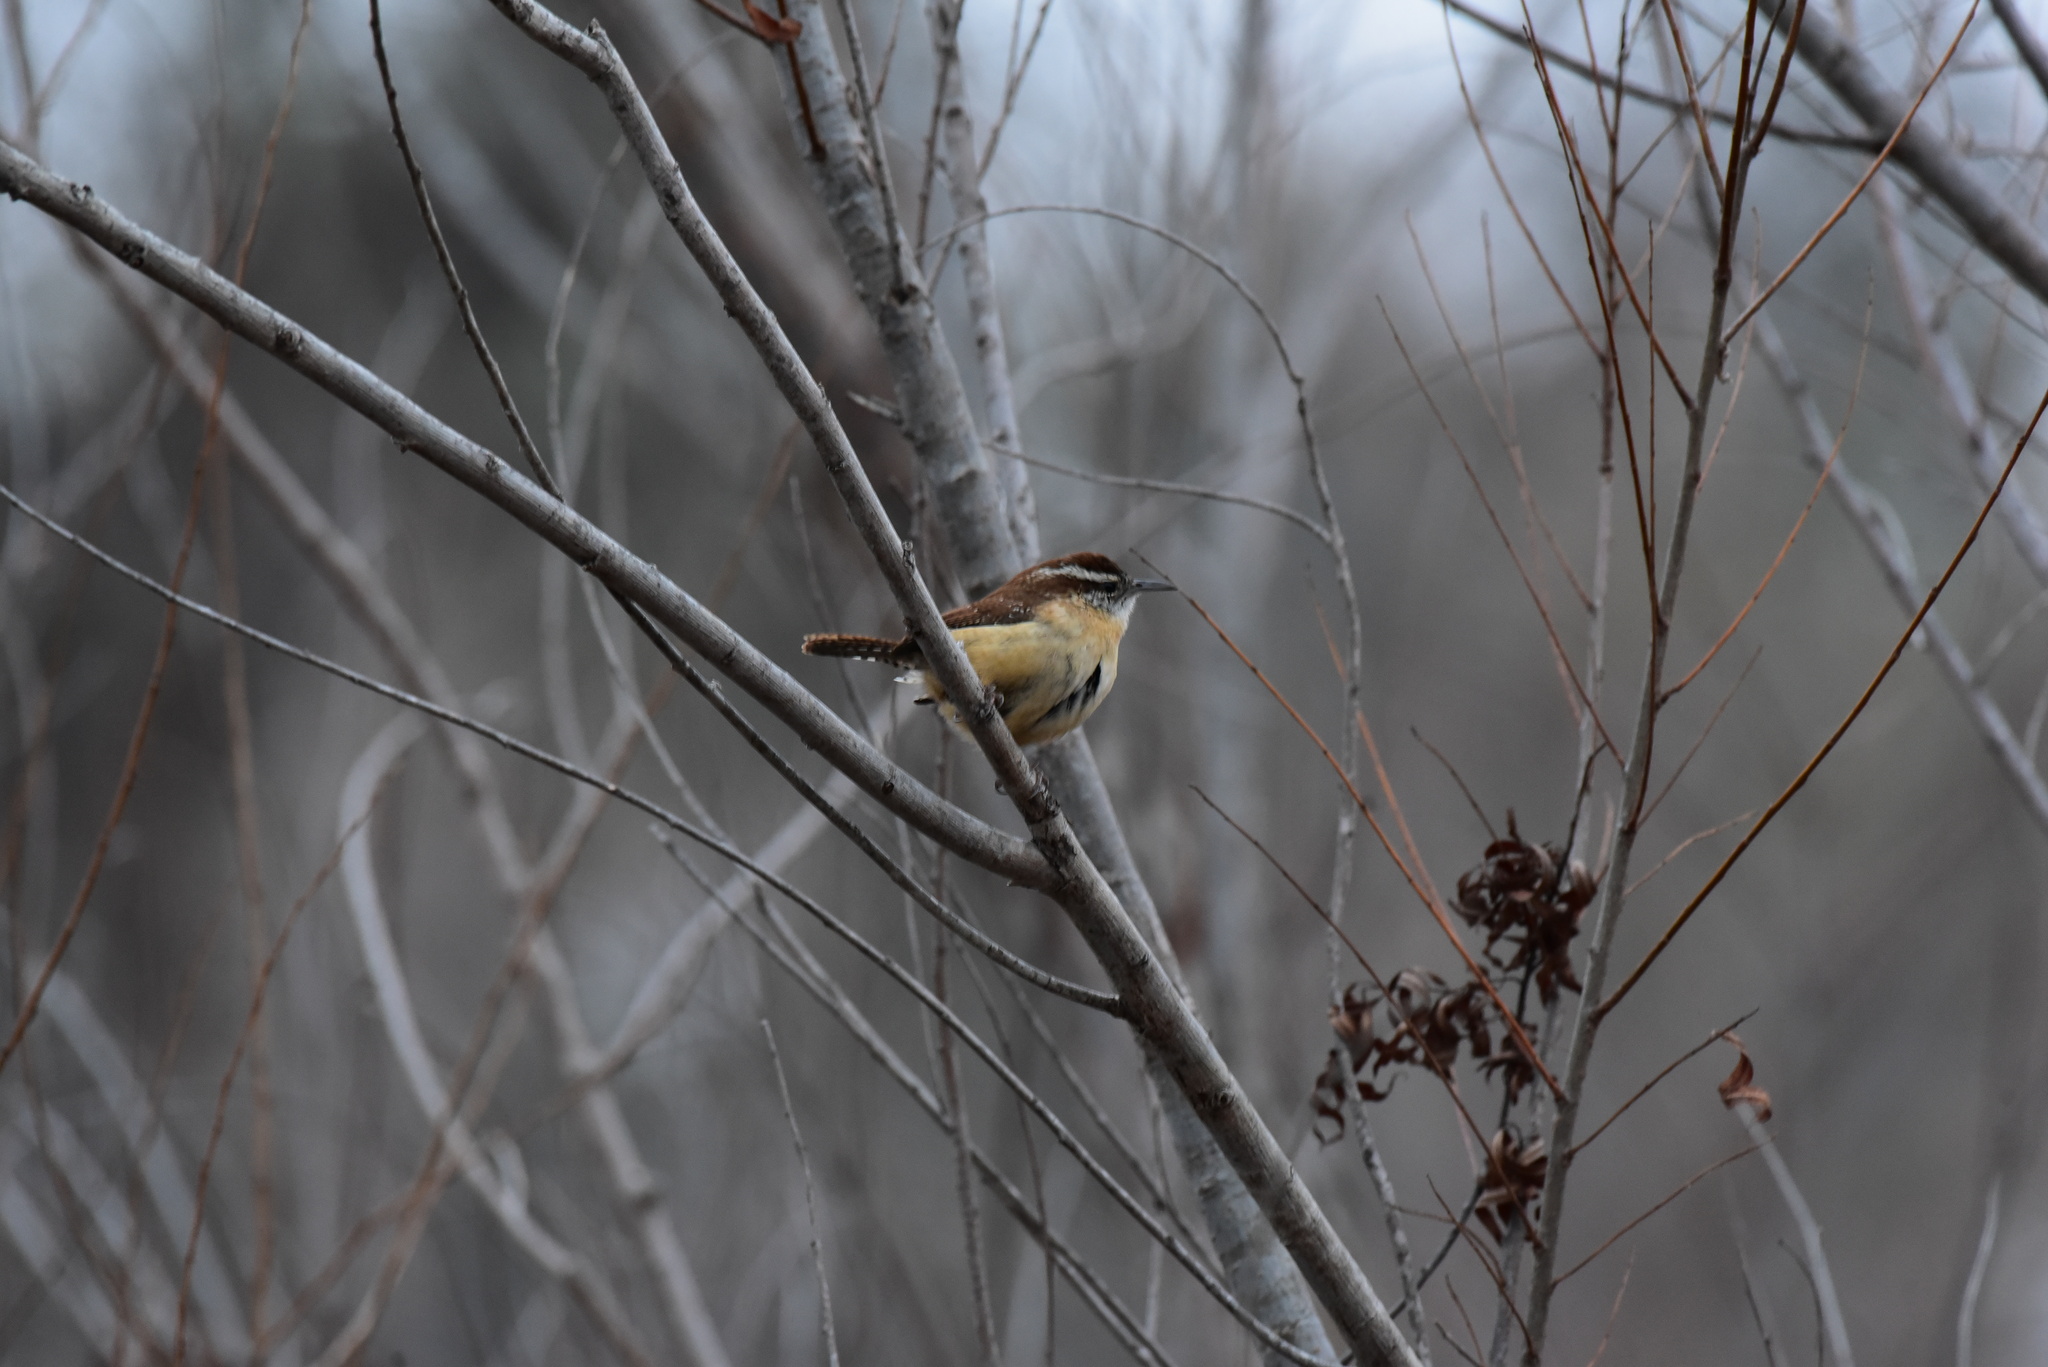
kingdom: Animalia
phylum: Chordata
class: Aves
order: Passeriformes
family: Troglodytidae
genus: Thryothorus
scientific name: Thryothorus ludovicianus
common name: Carolina wren
